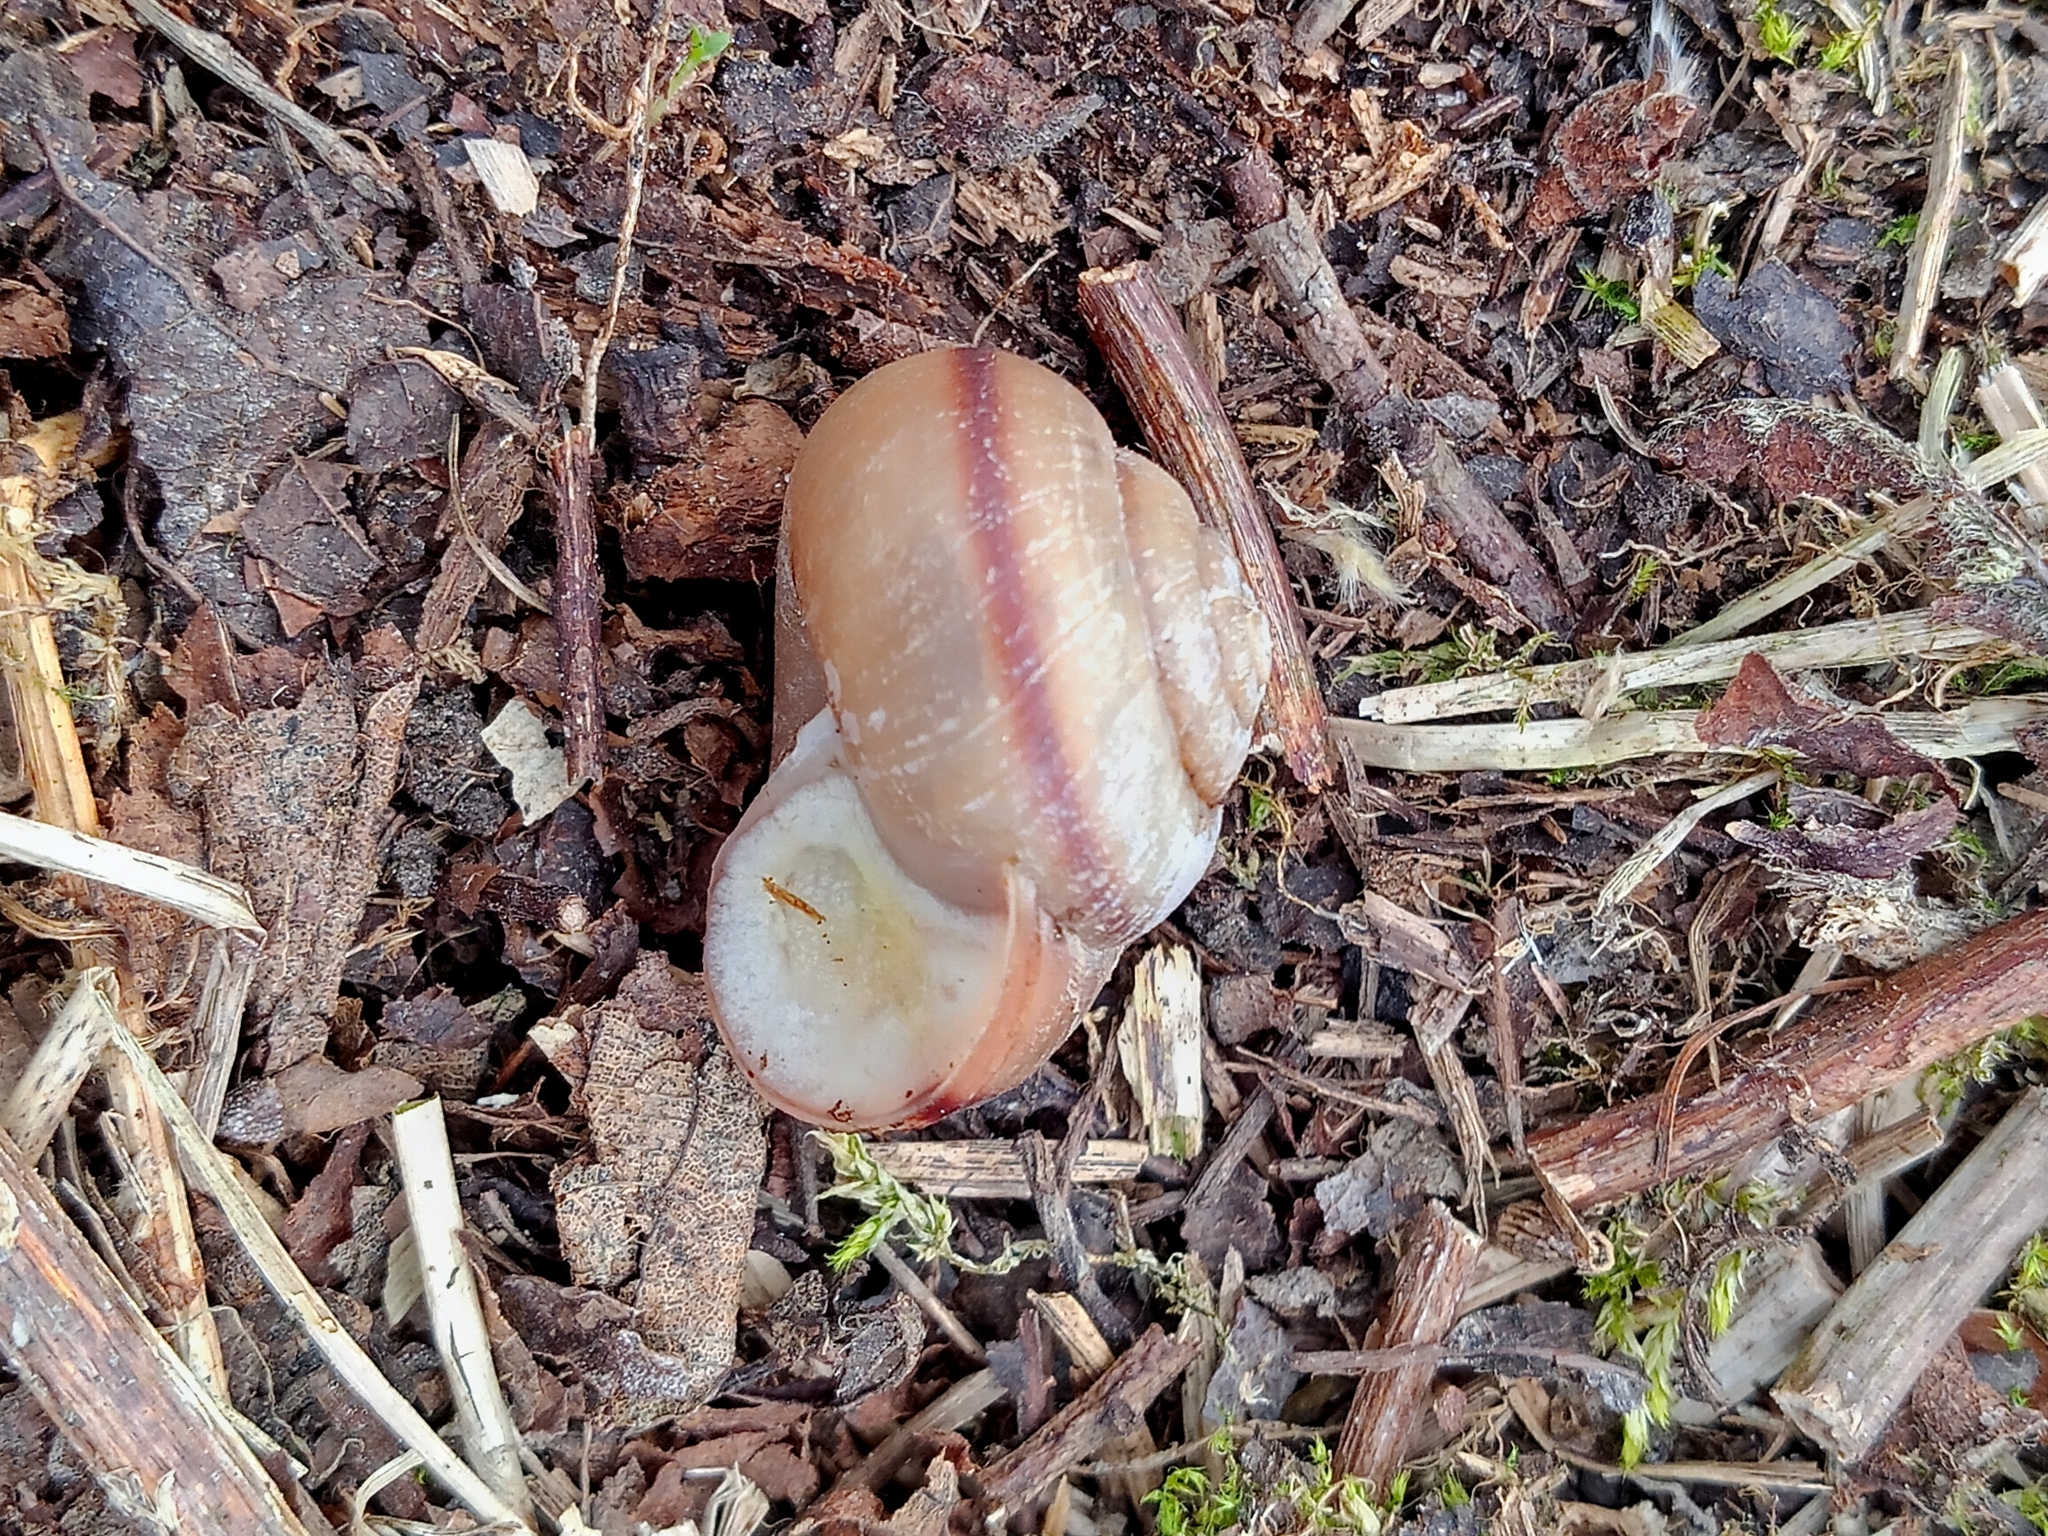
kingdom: Animalia
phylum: Mollusca
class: Gastropoda
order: Stylommatophora
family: Camaenidae
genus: Fruticicola
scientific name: Fruticicola fruticum
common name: Bush snail
